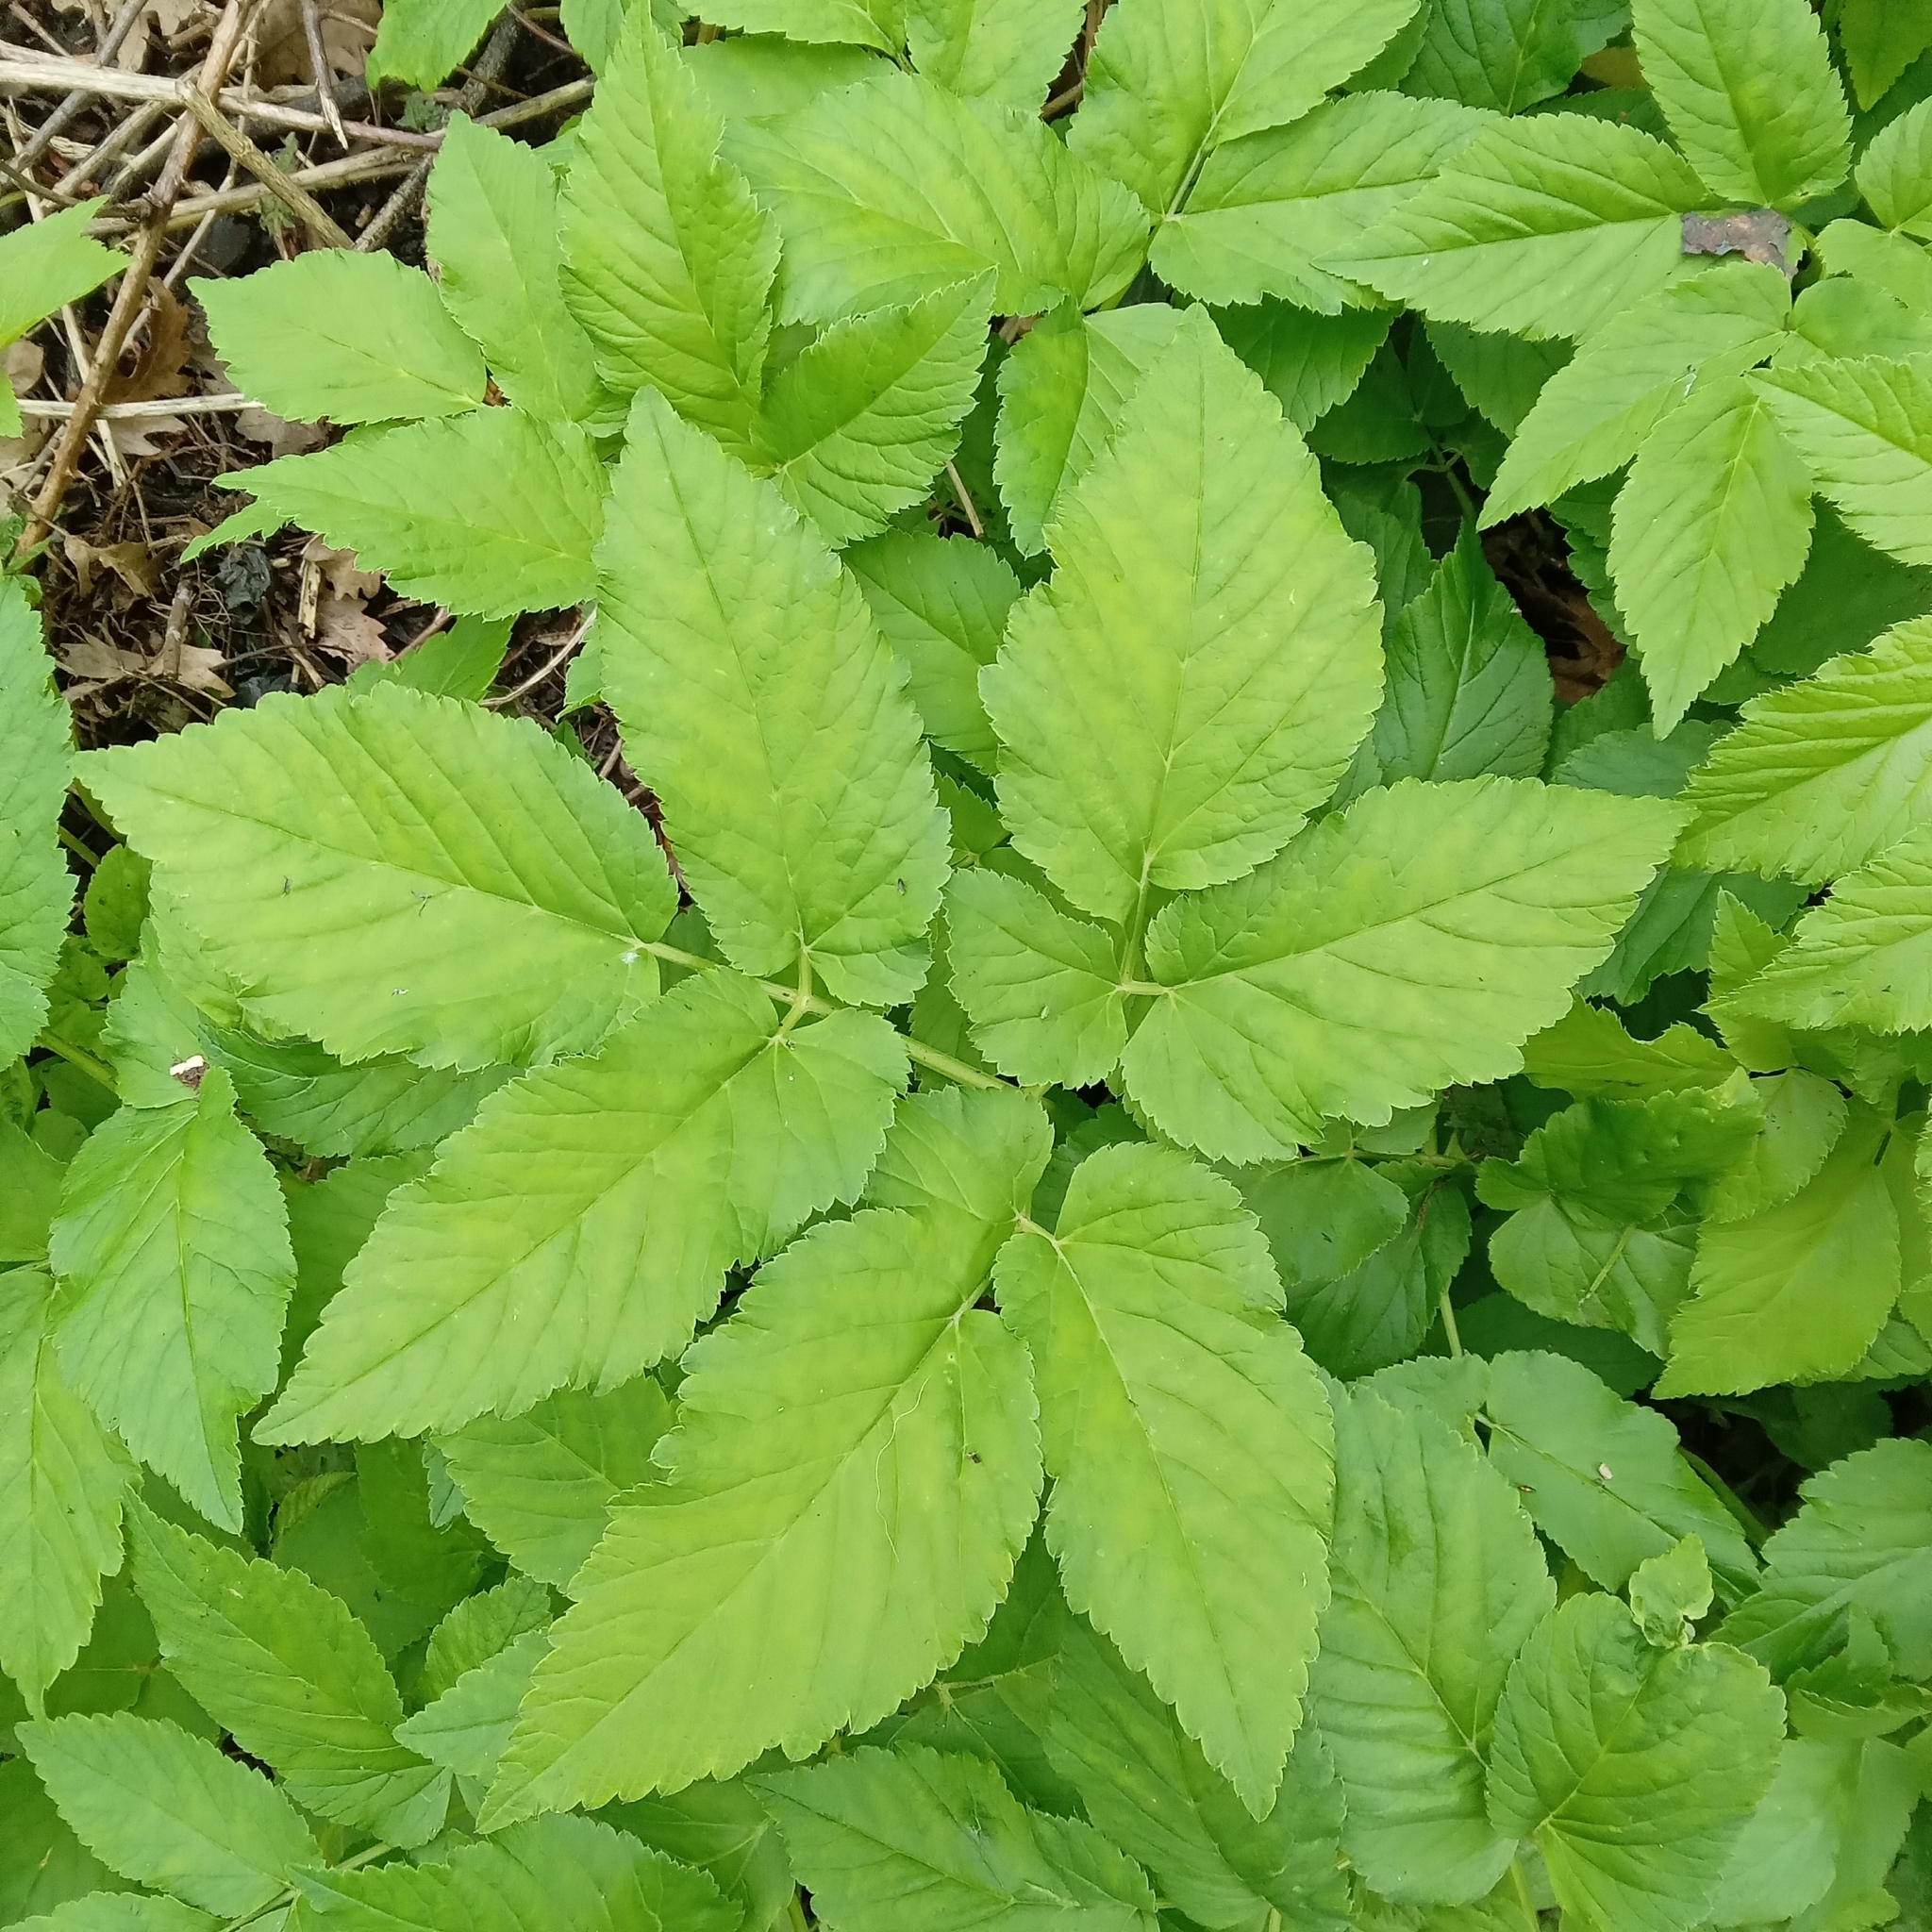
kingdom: Plantae
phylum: Tracheophyta
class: Magnoliopsida
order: Apiales
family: Apiaceae
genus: Aegopodium
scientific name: Aegopodium podagraria
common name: Ground-elder
